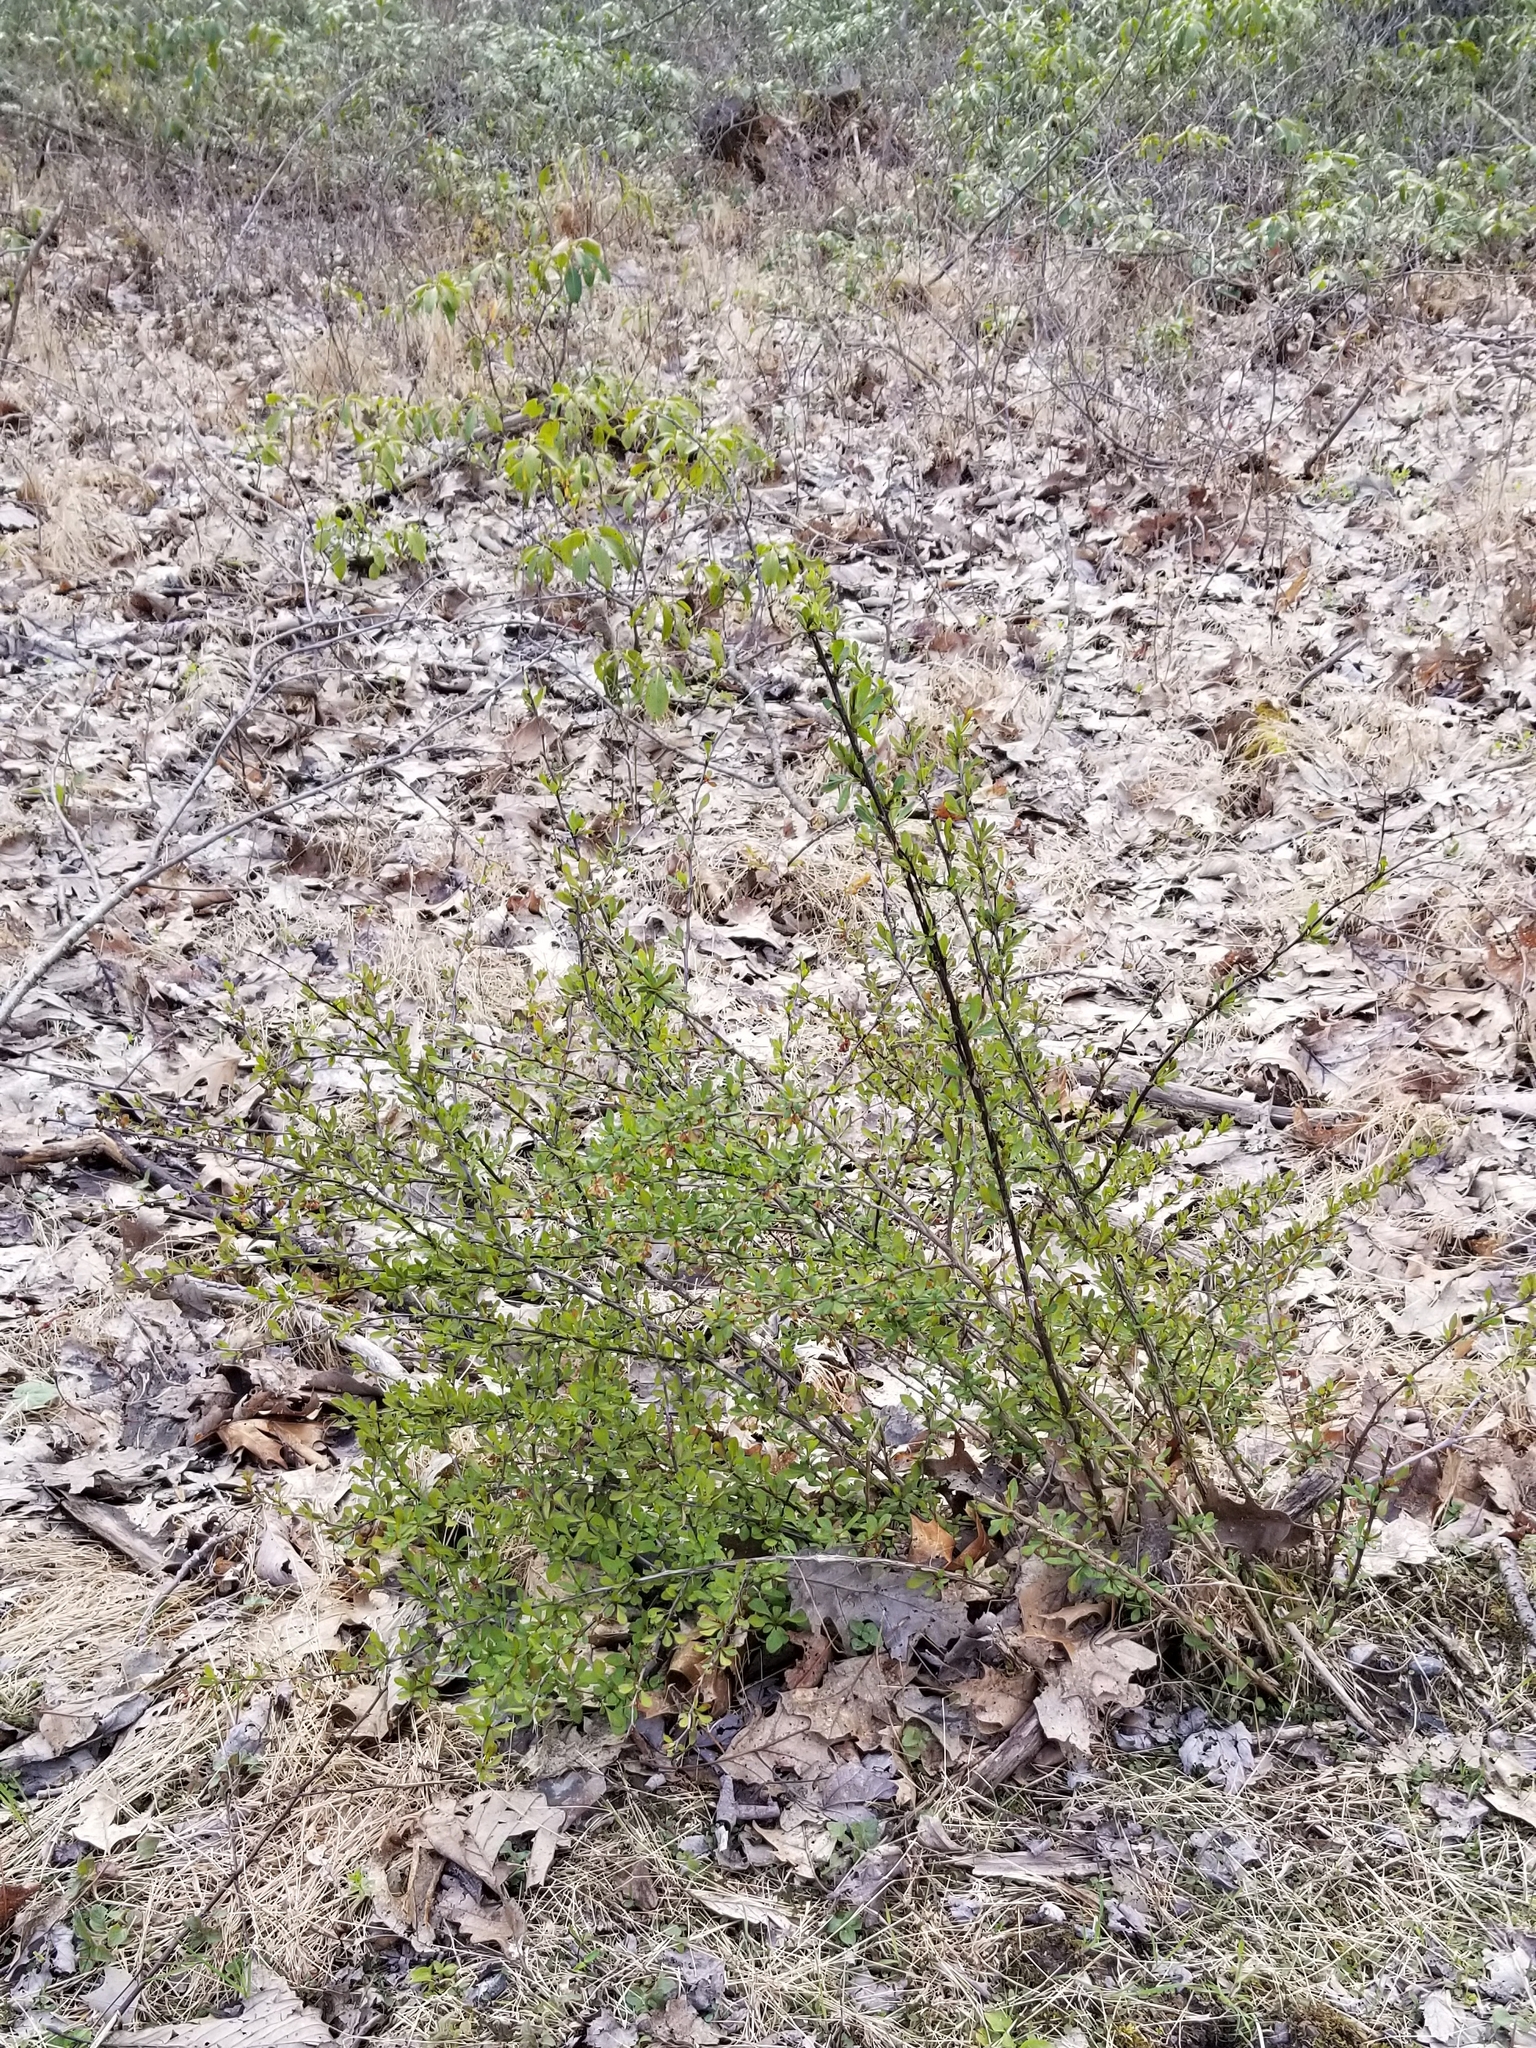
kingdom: Plantae
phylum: Tracheophyta
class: Magnoliopsida
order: Ranunculales
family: Berberidaceae
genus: Berberis
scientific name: Berberis thunbergii
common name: Japanese barberry
